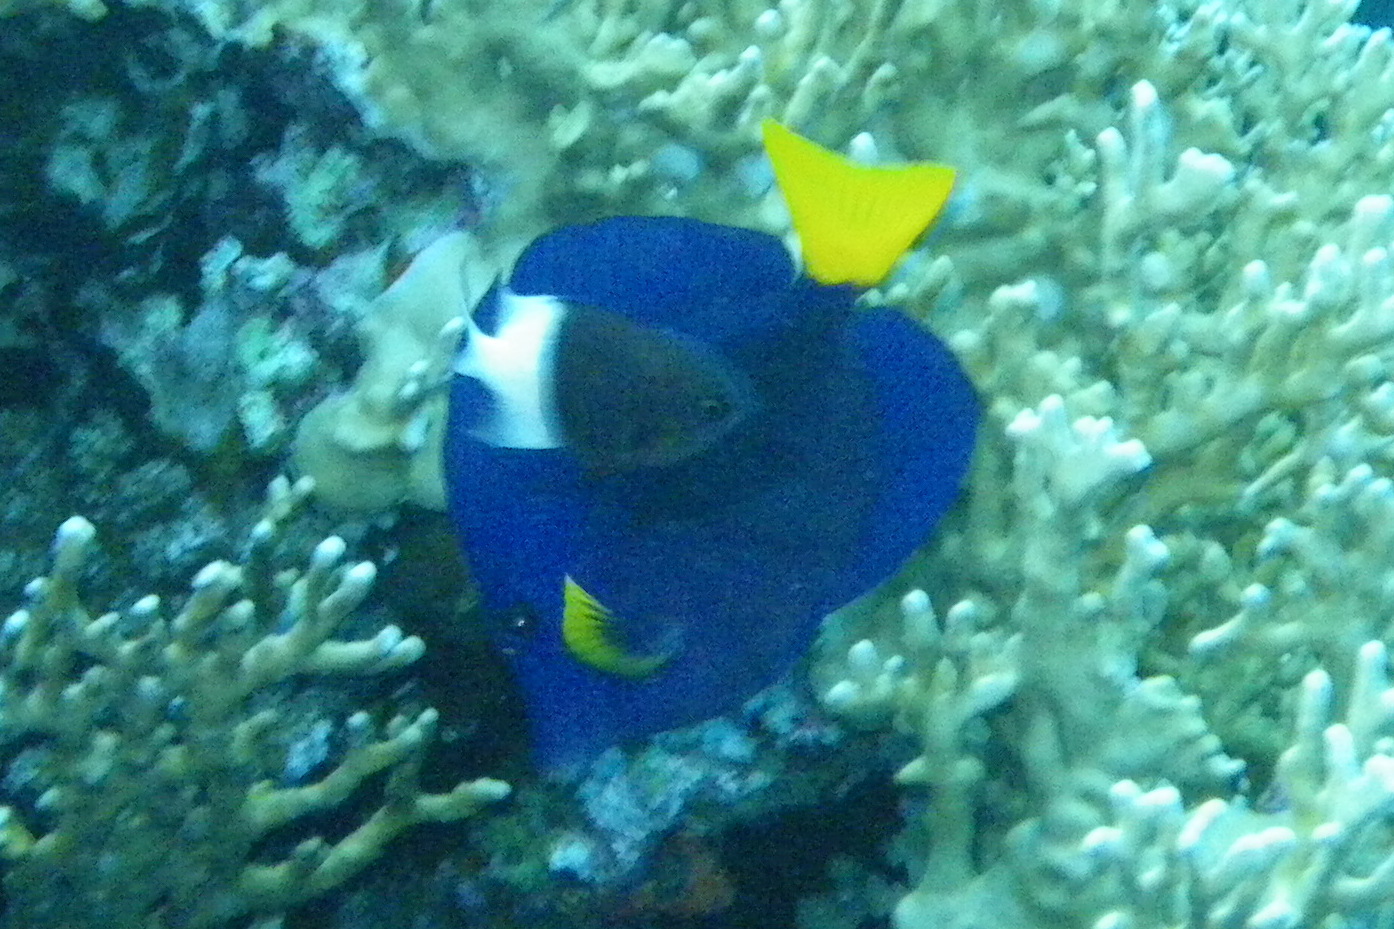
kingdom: Animalia
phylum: Chordata
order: Perciformes
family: Acanthuridae
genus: Zebrasoma
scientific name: Zebrasoma xanthurum
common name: Purple tang
